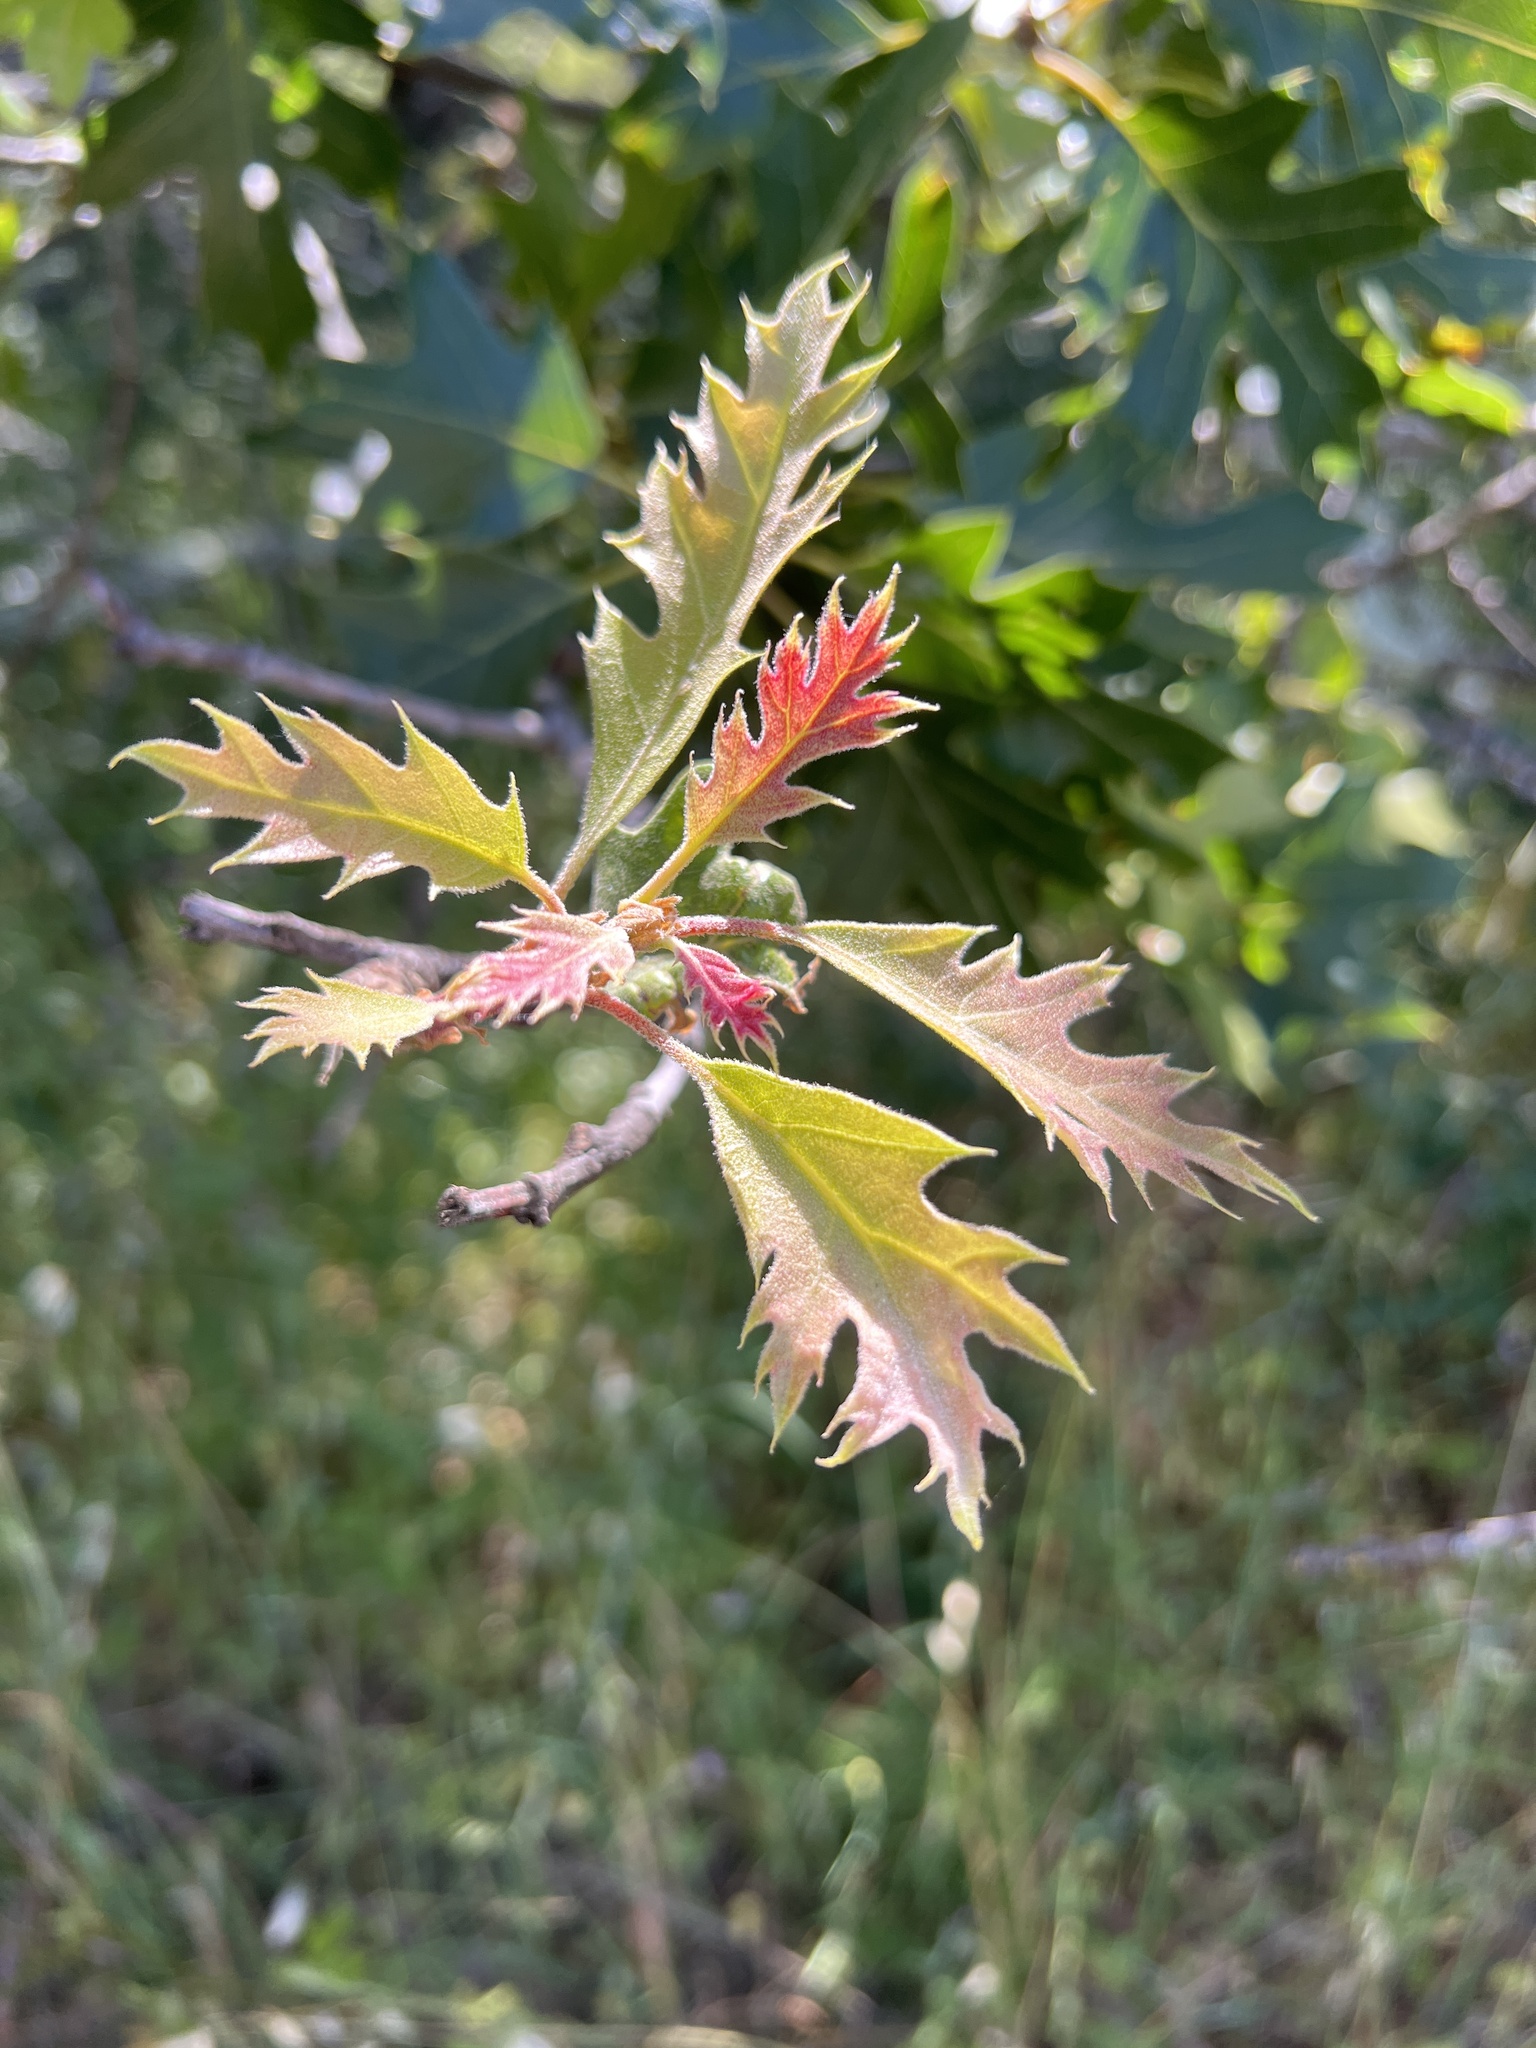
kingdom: Plantae
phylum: Tracheophyta
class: Magnoliopsida
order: Fagales
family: Fagaceae
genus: Quercus
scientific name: Quercus kelloggii
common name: California black oak
